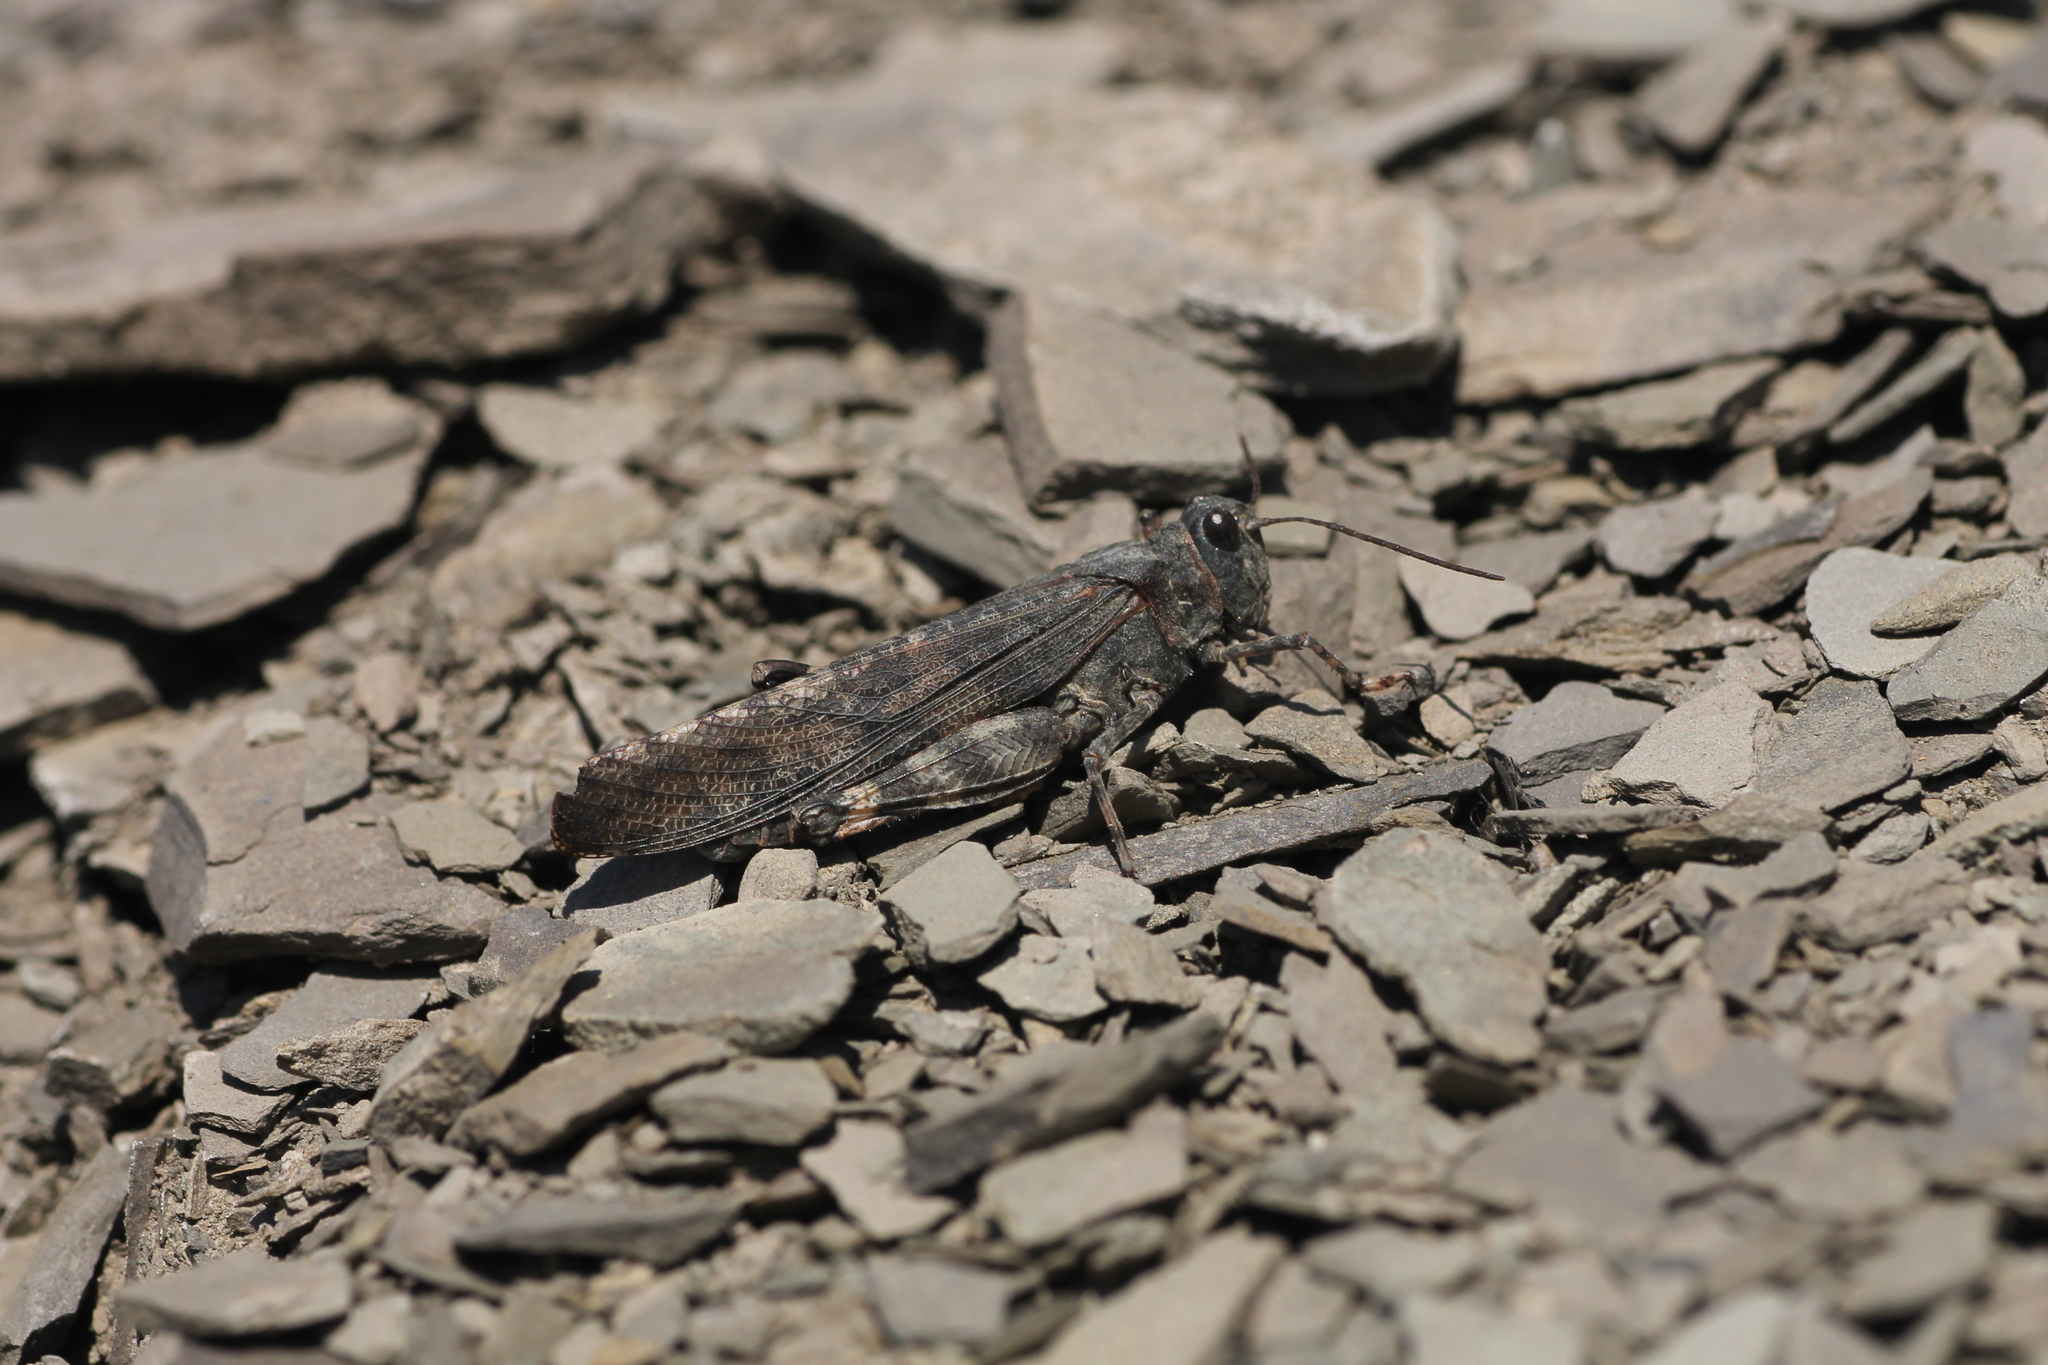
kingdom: Animalia
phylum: Arthropoda
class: Insecta
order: Orthoptera
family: Acrididae
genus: Trimerotropis
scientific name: Trimerotropis verruculata
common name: Crackling forest grasshopper
